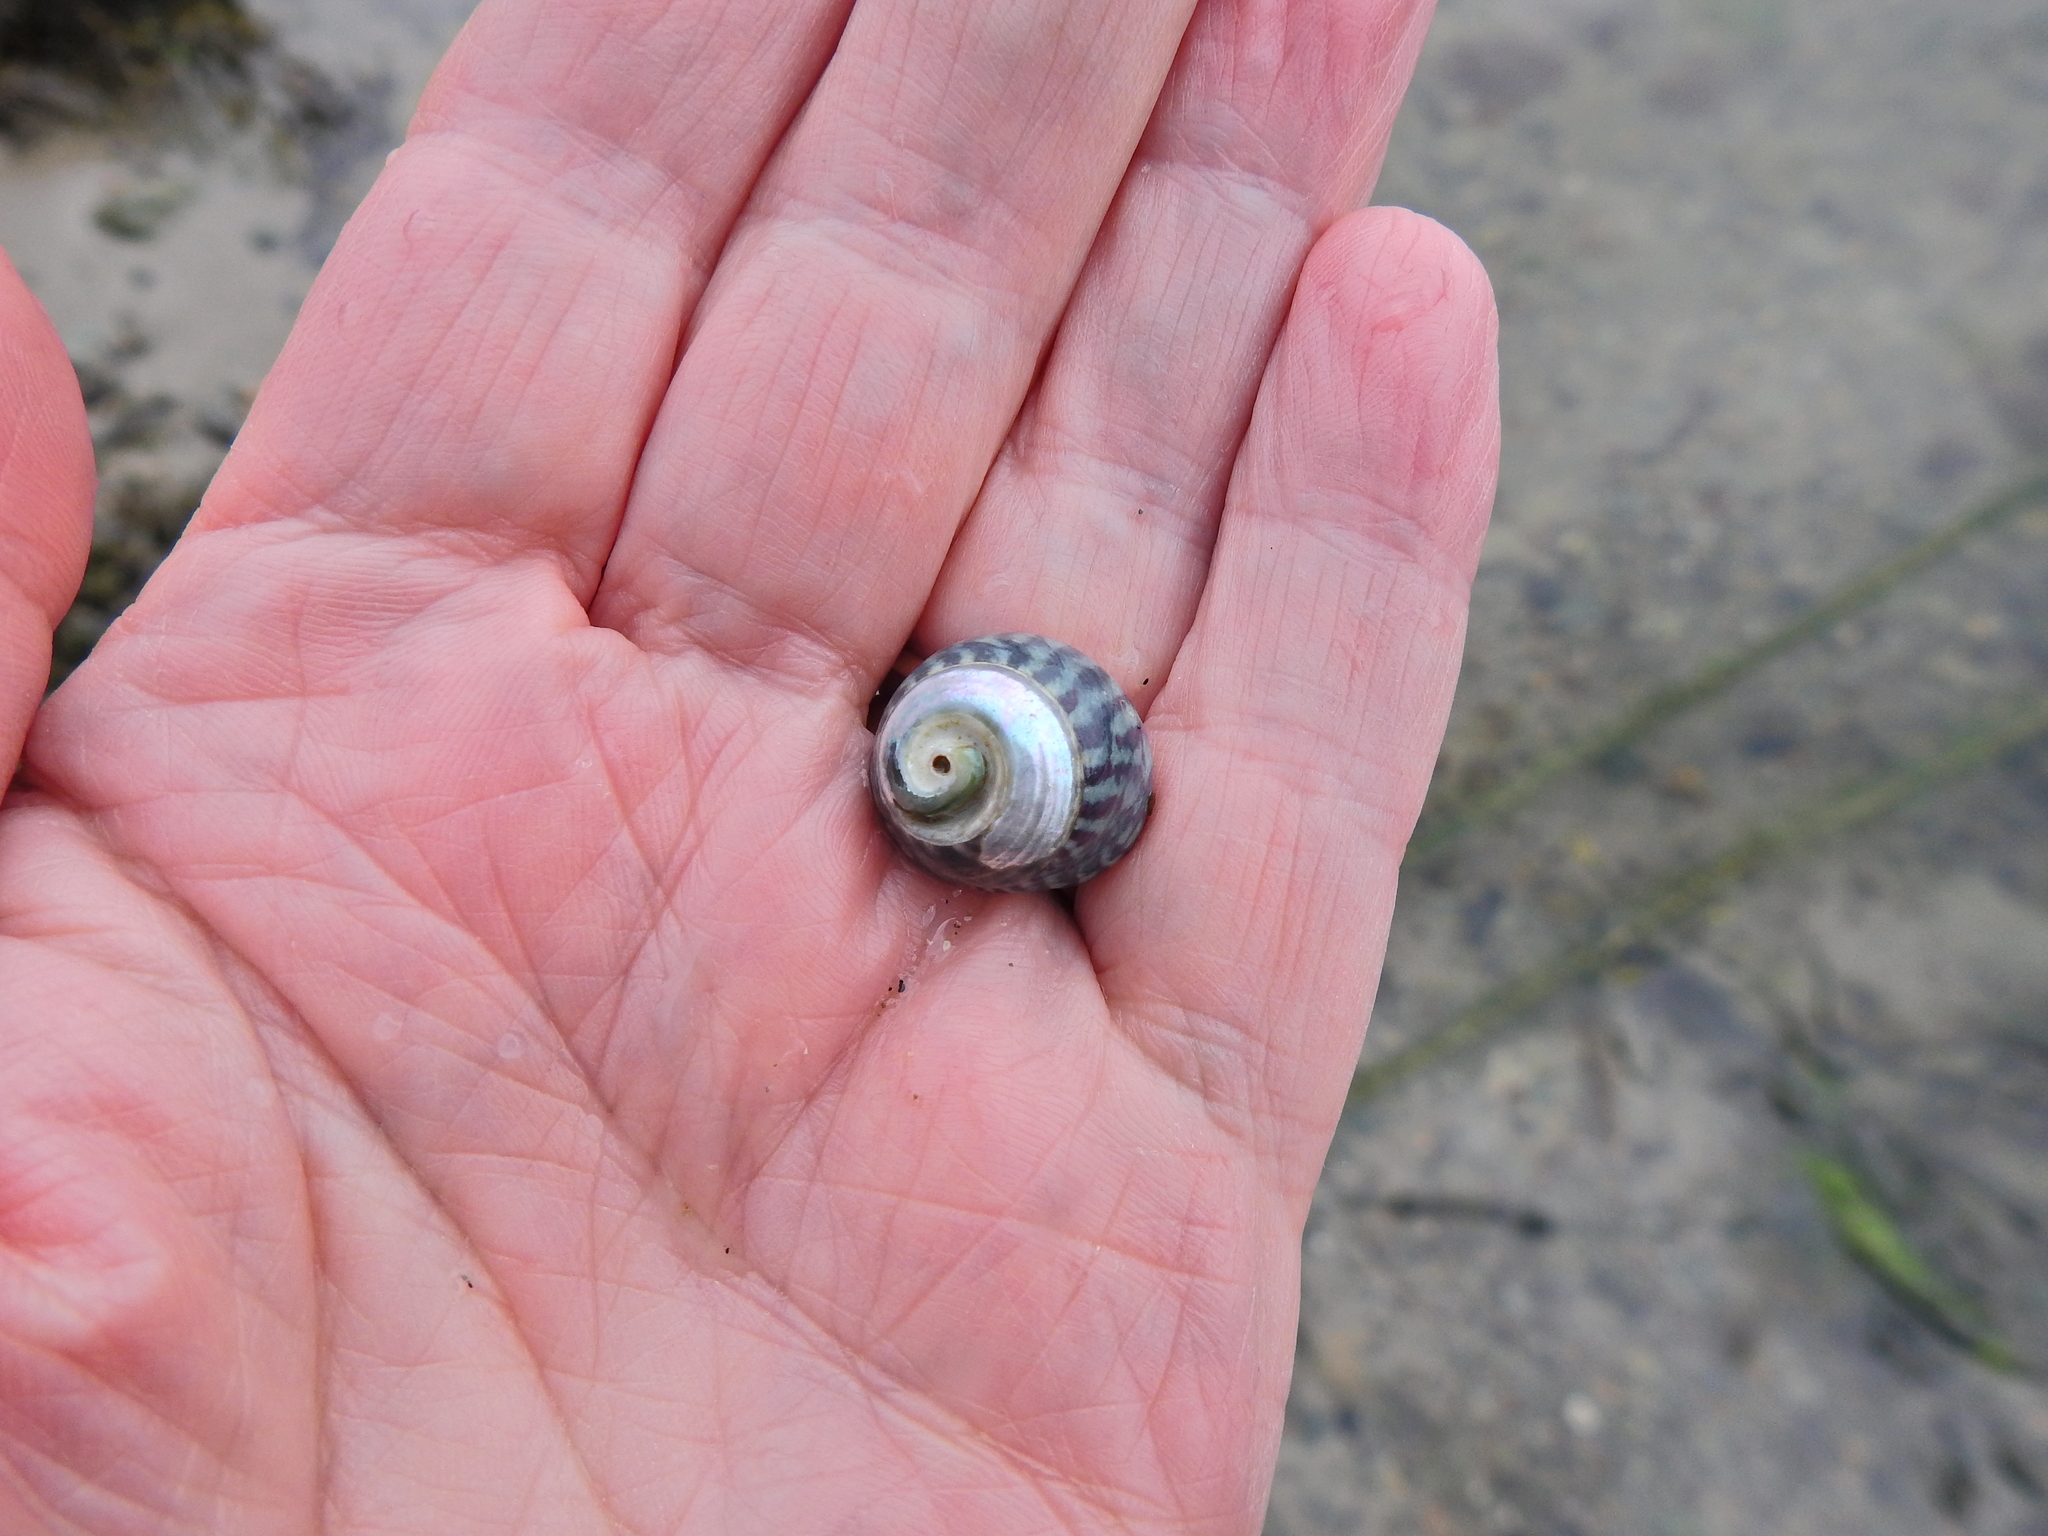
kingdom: Animalia
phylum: Mollusca
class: Gastropoda
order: Trochida
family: Trochidae
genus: Steromphala
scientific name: Steromphala umbilicalis
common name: Flat top shell
